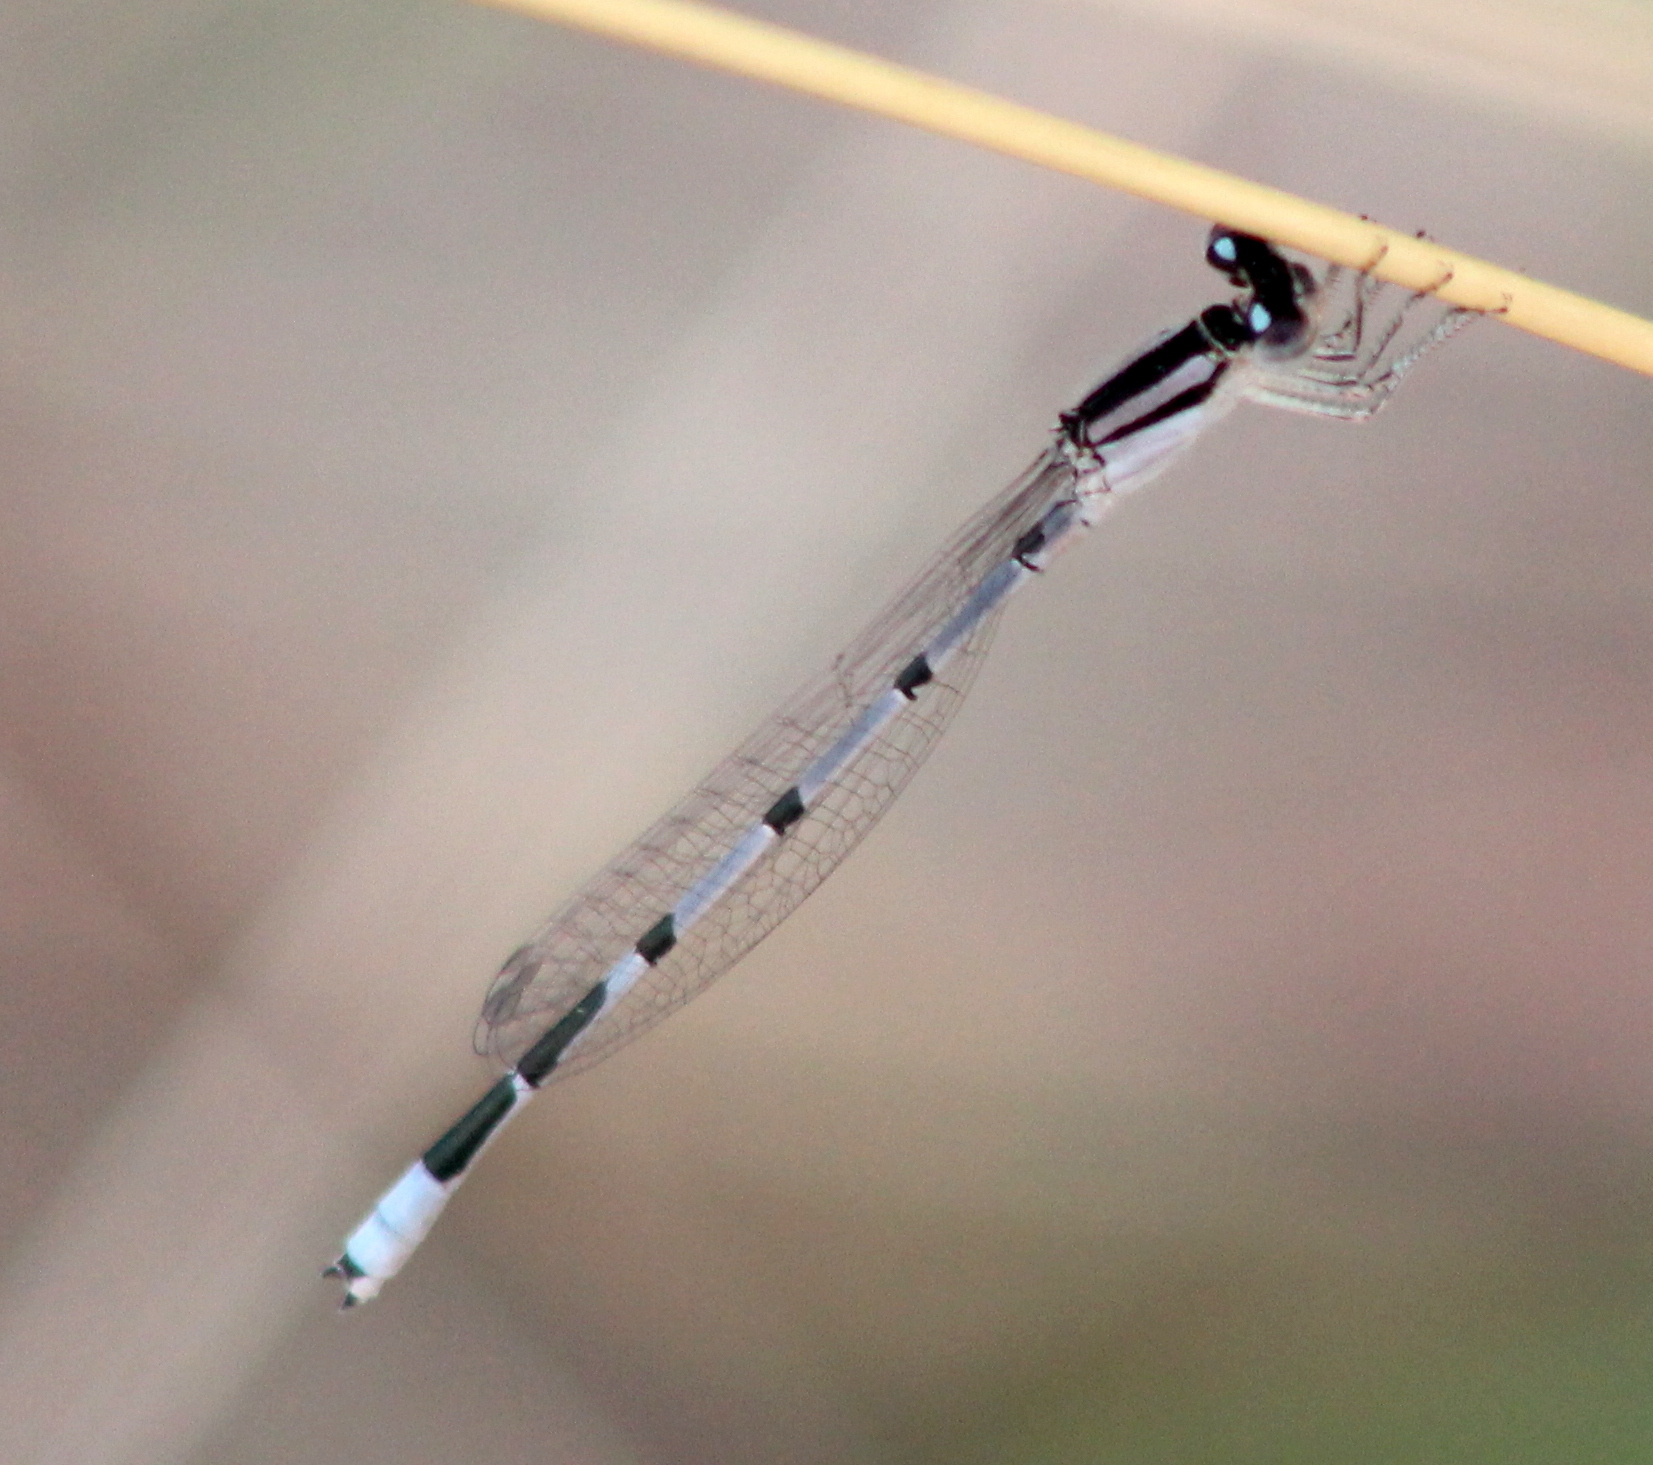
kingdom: Animalia
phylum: Arthropoda
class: Insecta
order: Odonata
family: Coenagrionidae
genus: Enallagma
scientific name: Enallagma civile
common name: Damselfly
